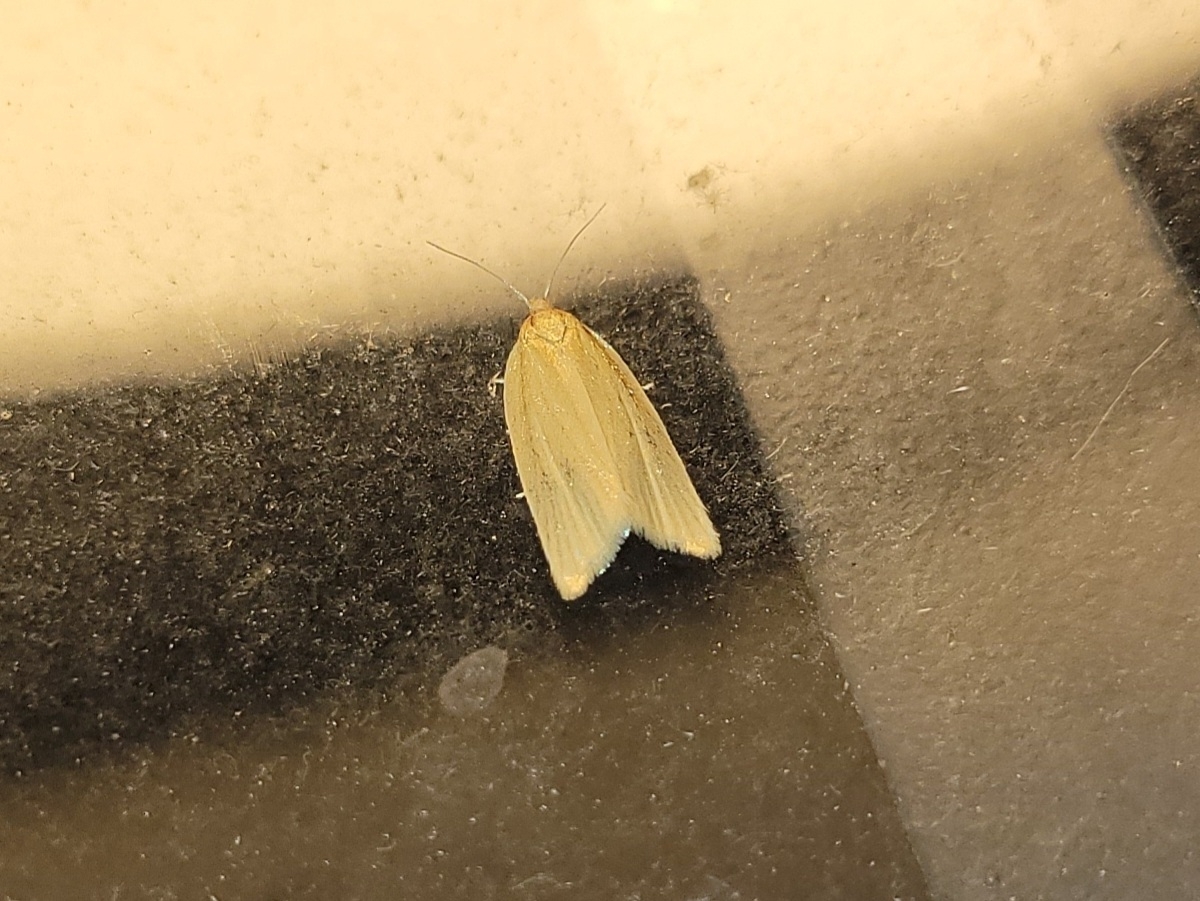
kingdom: Animalia
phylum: Arthropoda
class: Insecta
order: Lepidoptera
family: Tortricidae
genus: Clepsis
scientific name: Clepsis clemensiana
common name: Clemens' clepsis moth
